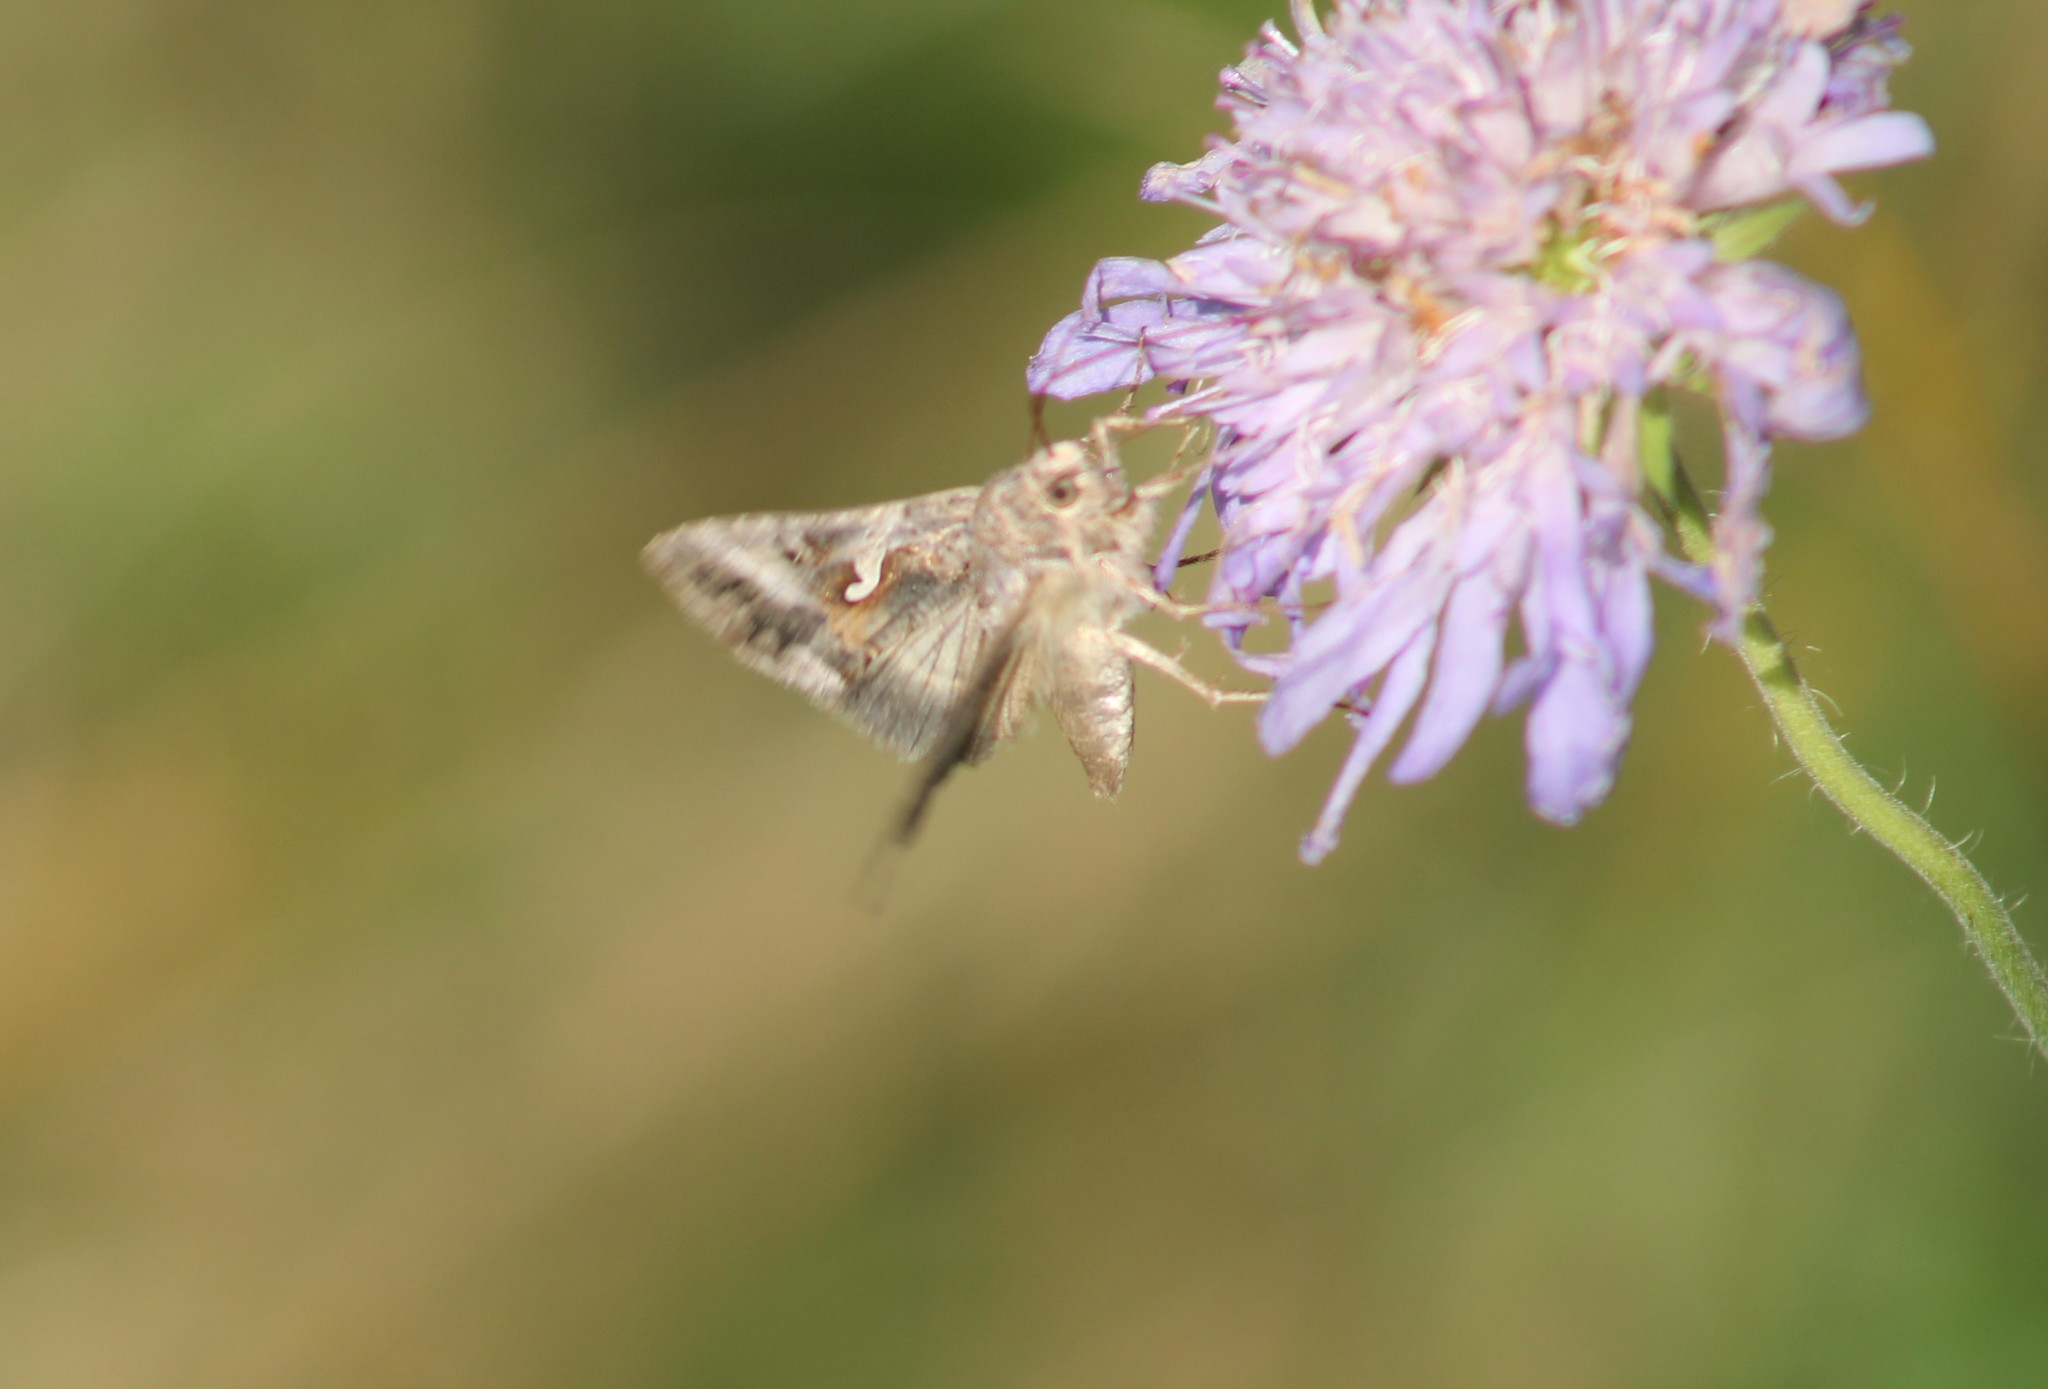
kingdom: Animalia
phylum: Arthropoda
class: Insecta
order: Lepidoptera
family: Noctuidae
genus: Autographa
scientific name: Autographa gamma
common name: Silver y
